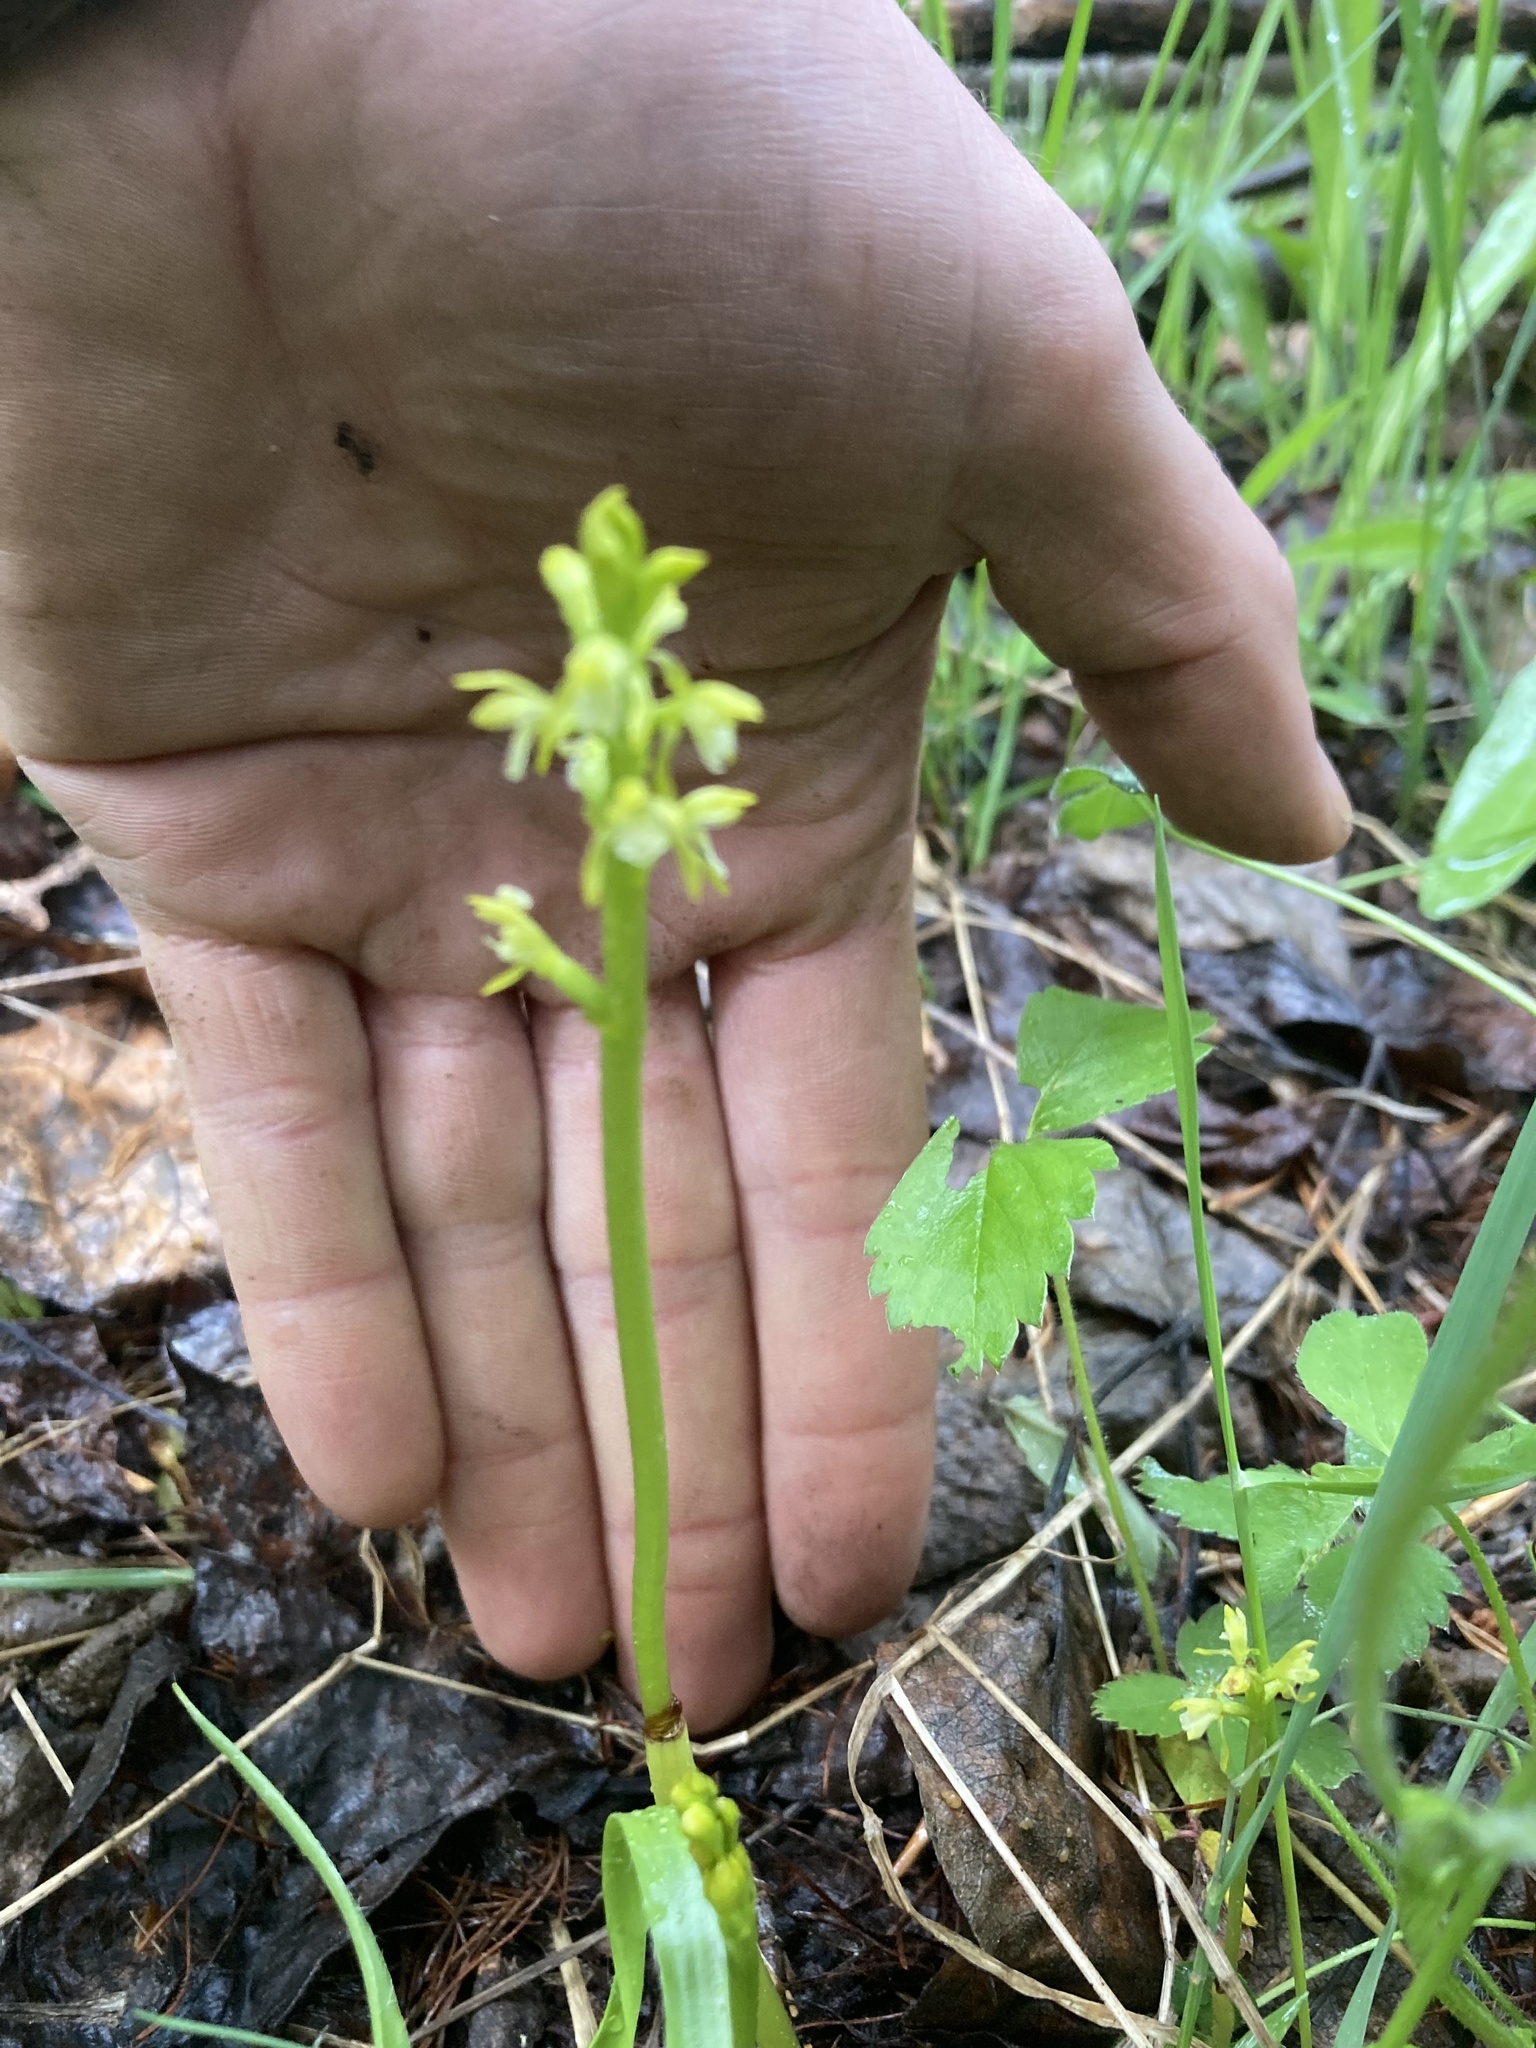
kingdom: Plantae
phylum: Tracheophyta
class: Liliopsida
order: Asparagales
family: Orchidaceae
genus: Corallorhiza
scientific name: Corallorhiza trifida
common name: Yellow coralroot
